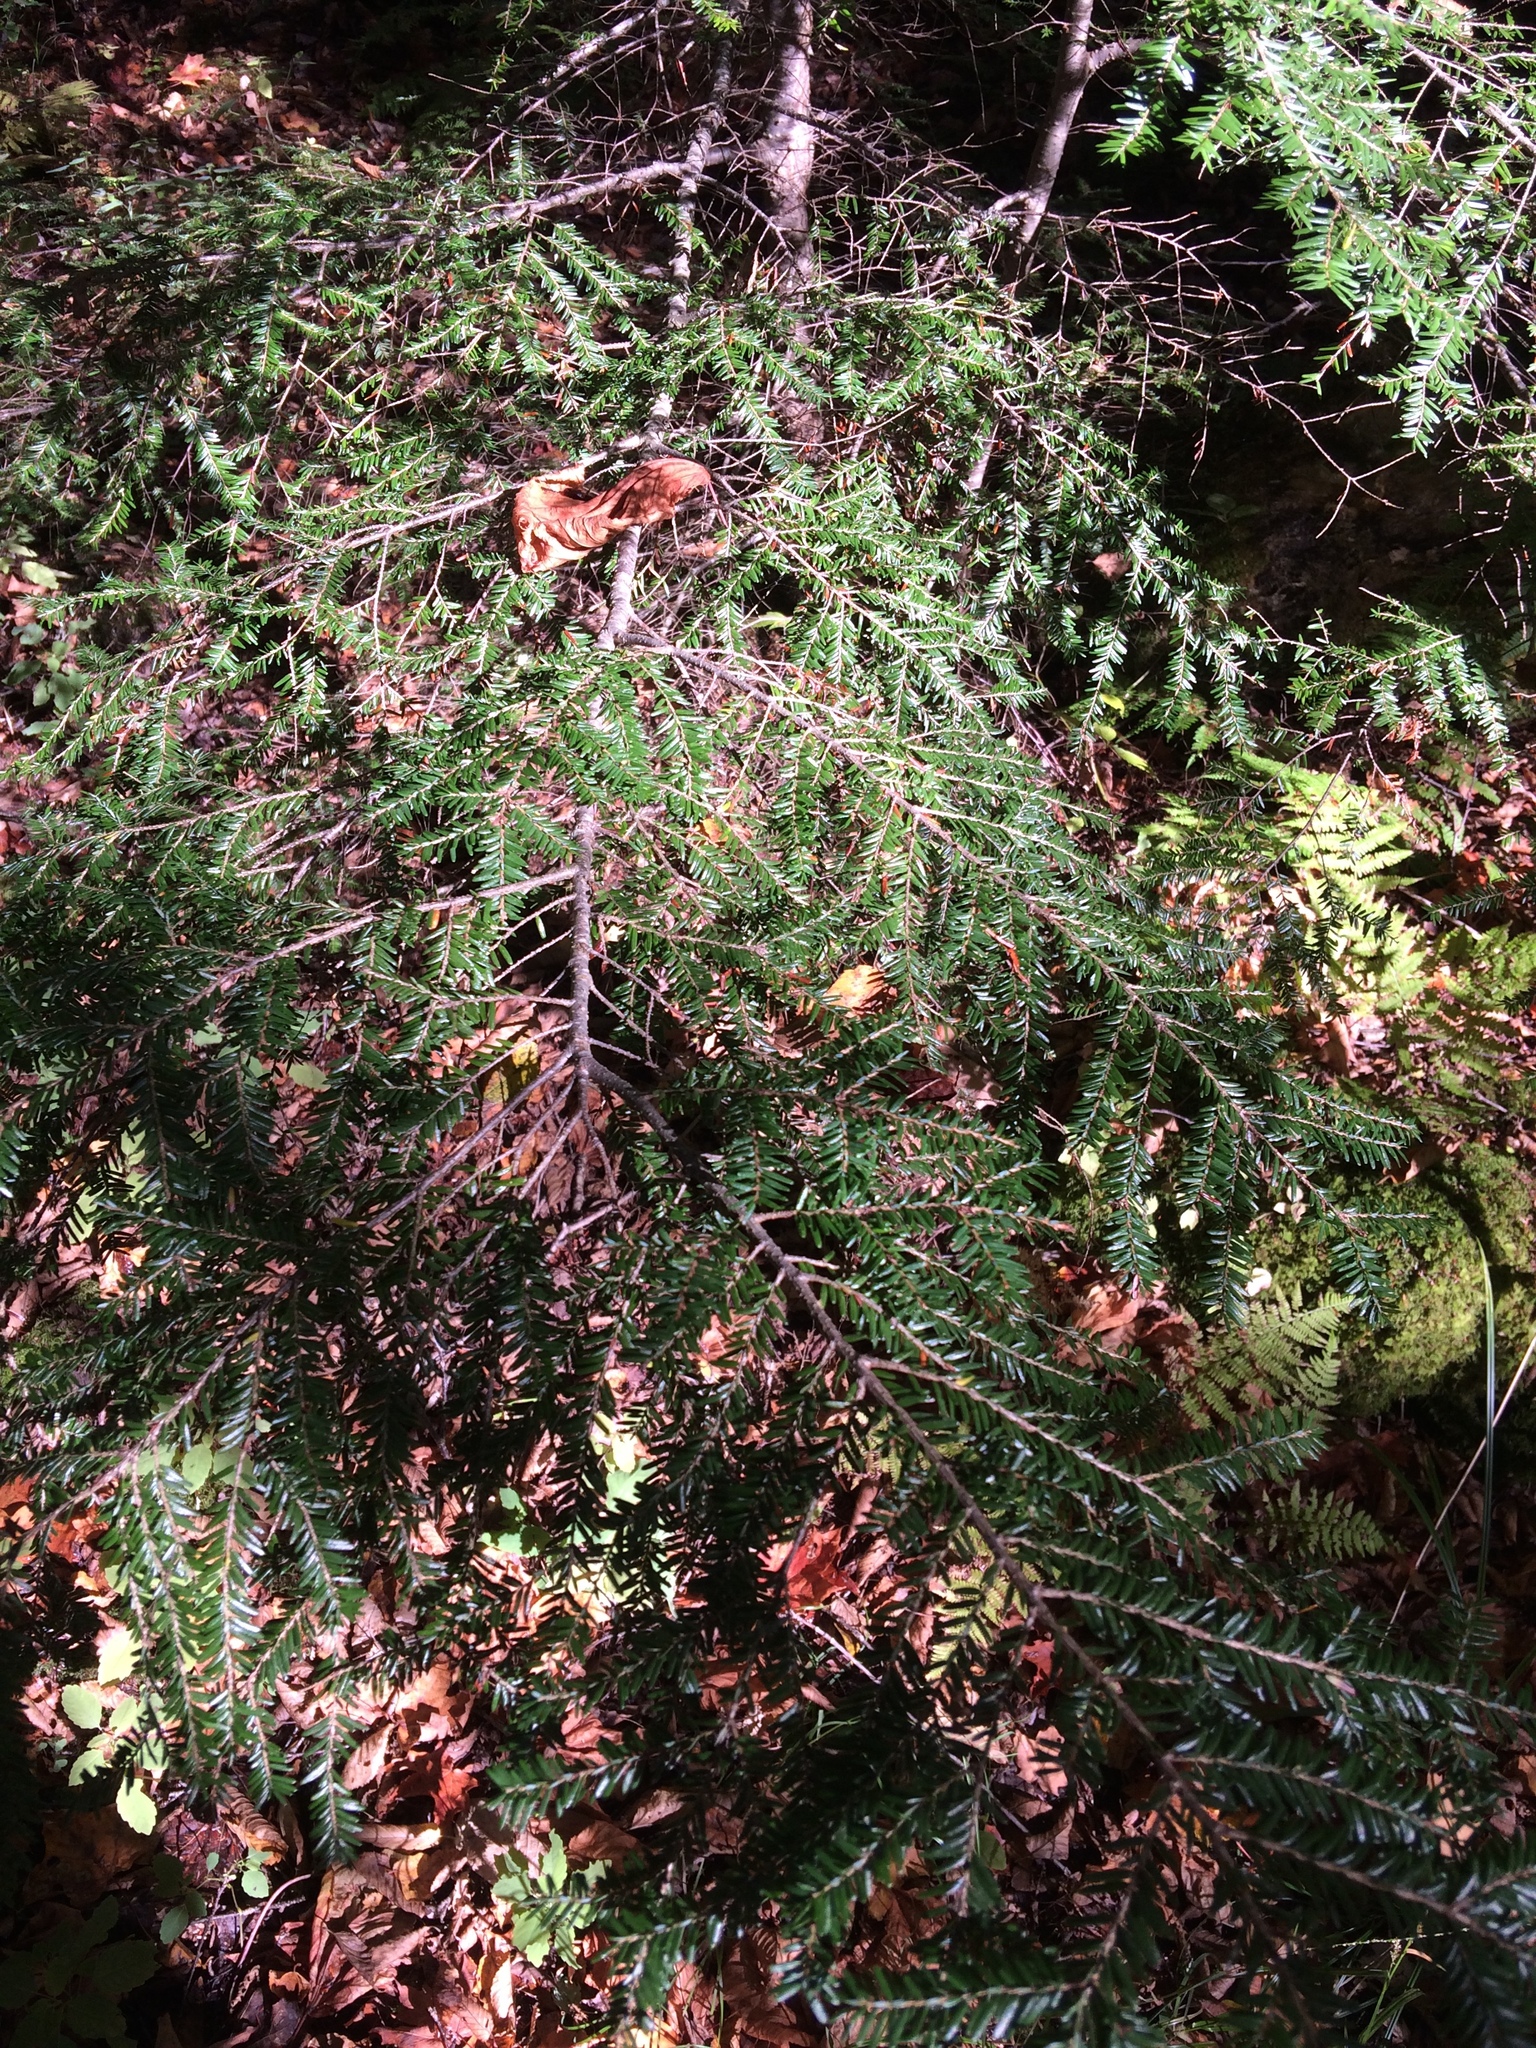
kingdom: Plantae
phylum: Tracheophyta
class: Pinopsida
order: Pinales
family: Pinaceae
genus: Tsuga
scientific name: Tsuga canadensis
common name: Eastern hemlock
